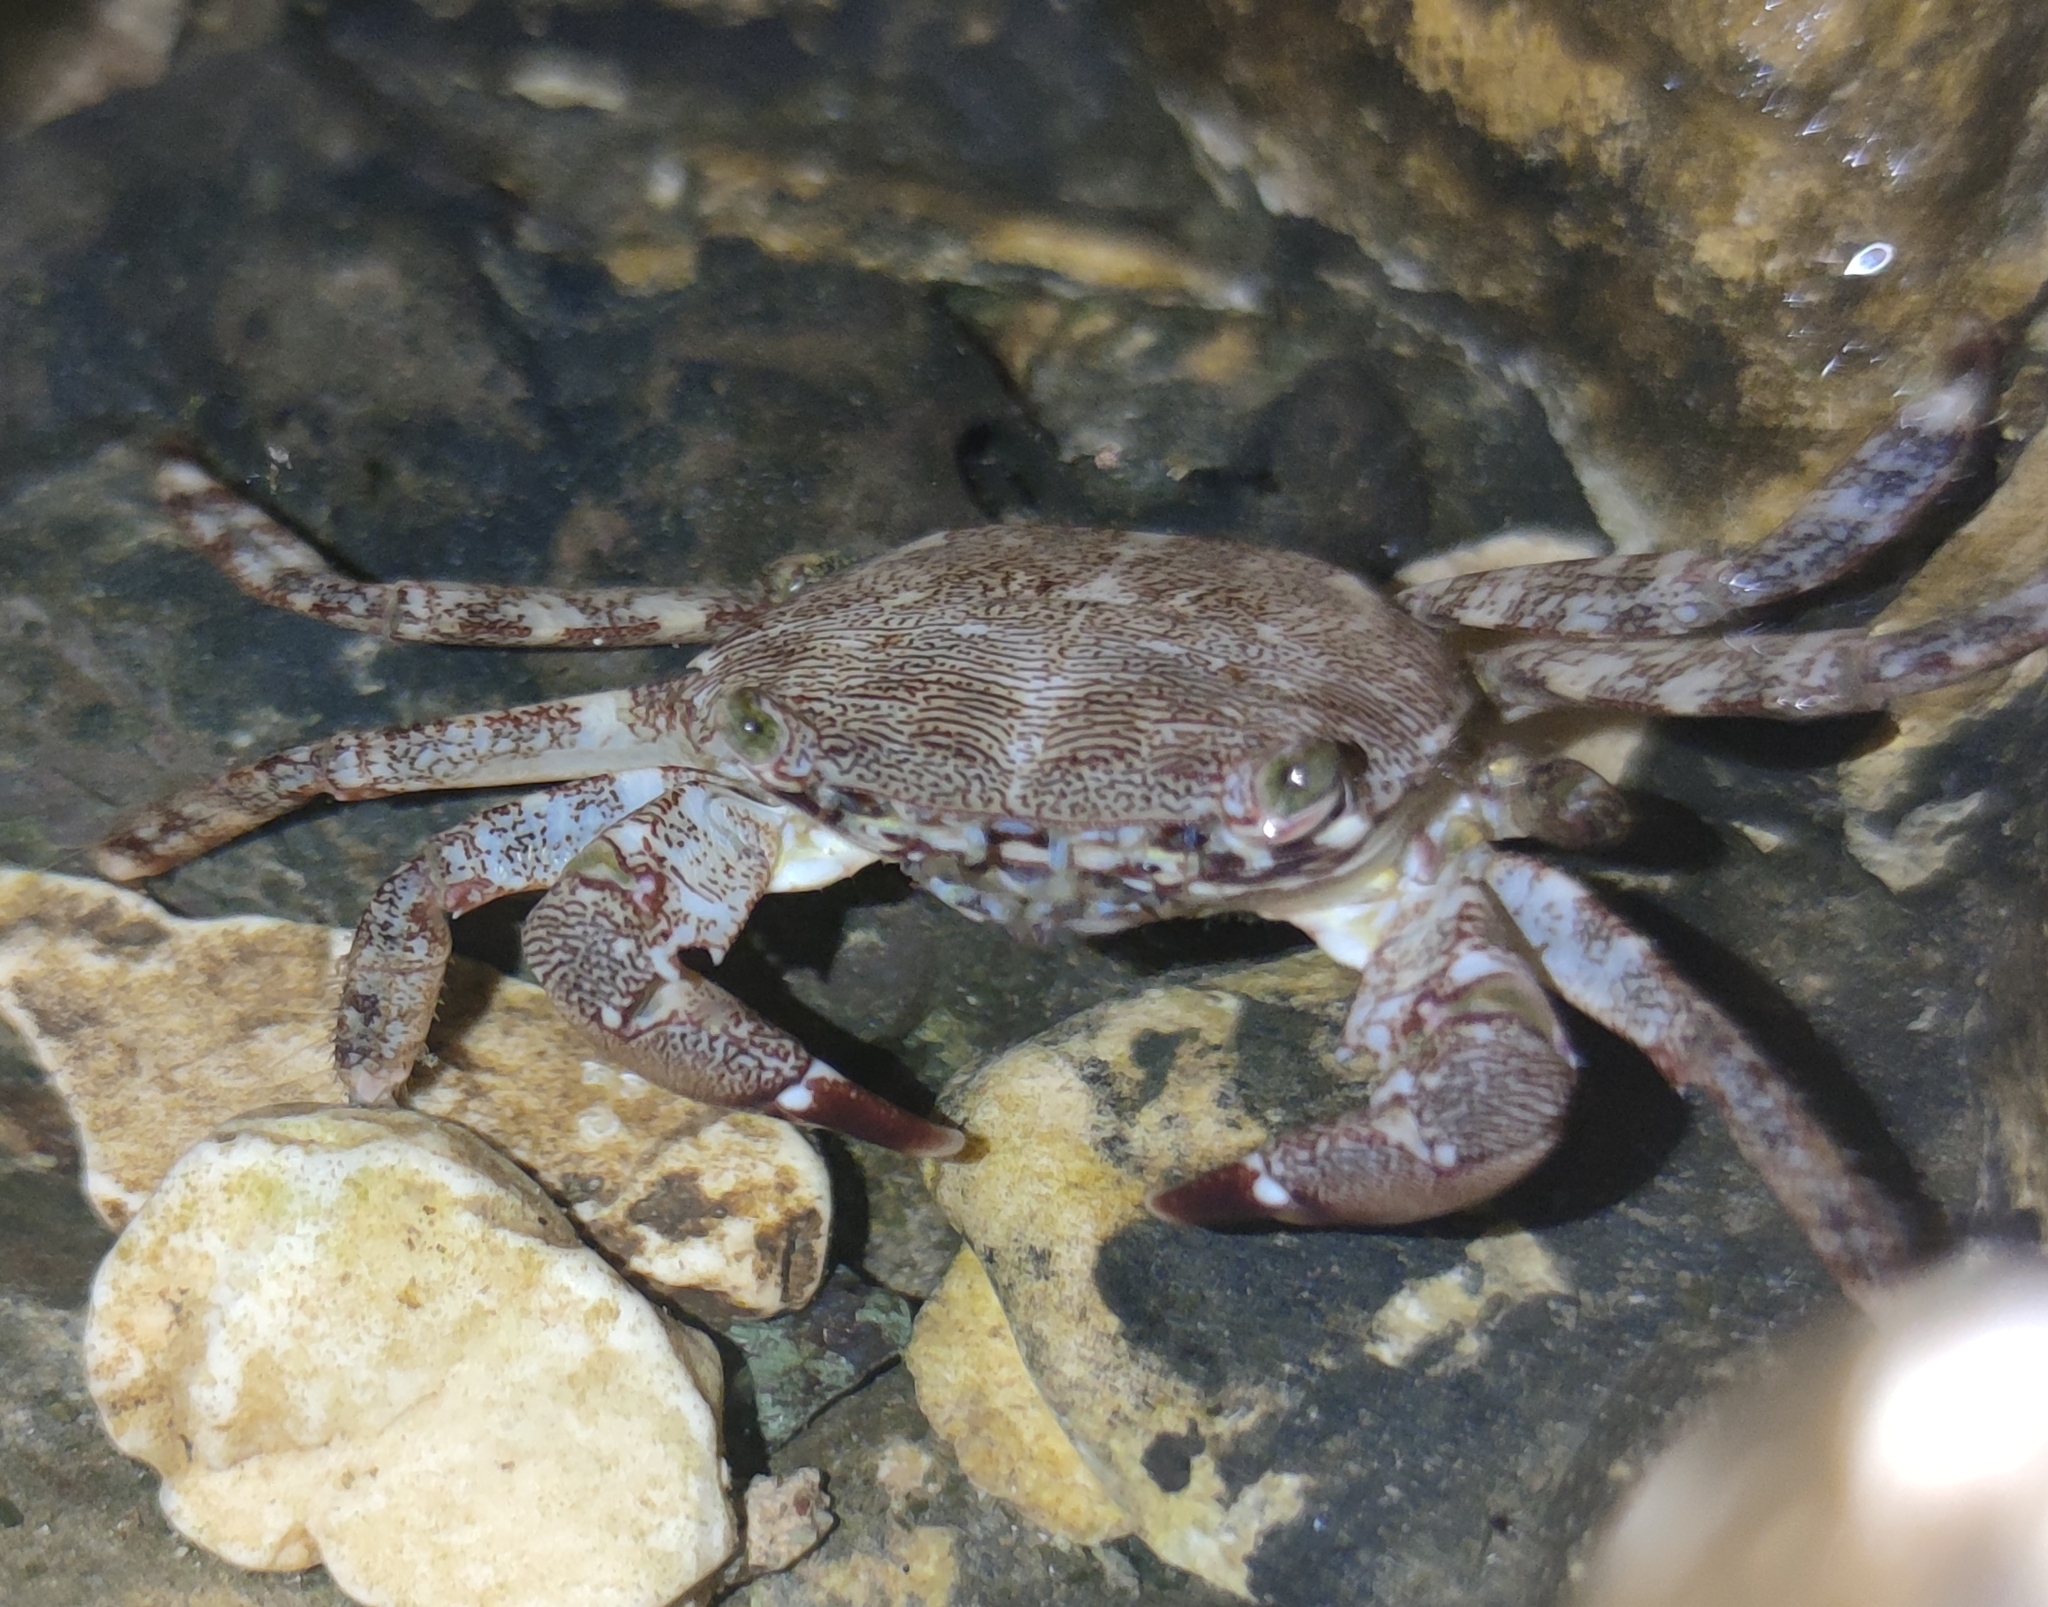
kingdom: Animalia
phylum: Arthropoda
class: Malacostraca
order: Decapoda
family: Grapsidae
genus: Pachygrapsus
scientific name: Pachygrapsus marmoratus
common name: Marbled rock crab
